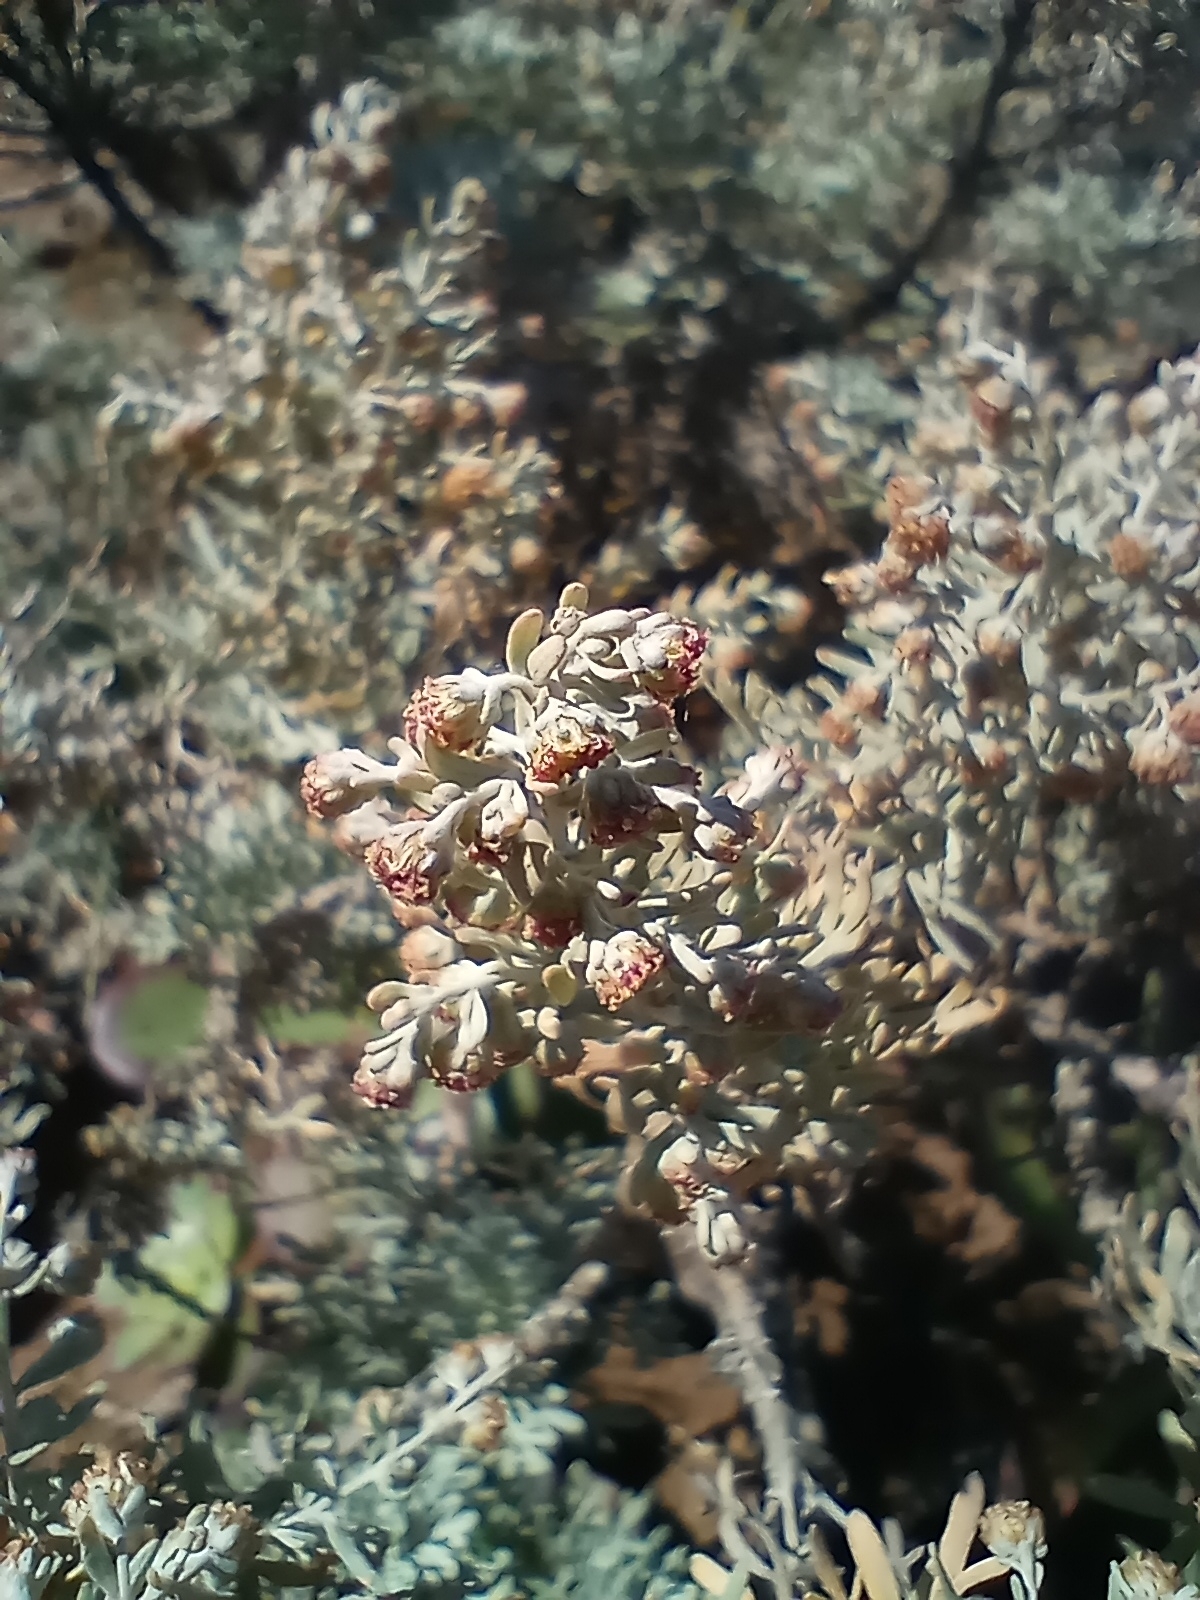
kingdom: Plantae
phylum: Tracheophyta
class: Magnoliopsida
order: Asterales
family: Asteraceae
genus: Artemisia
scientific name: Artemisia thuscula
